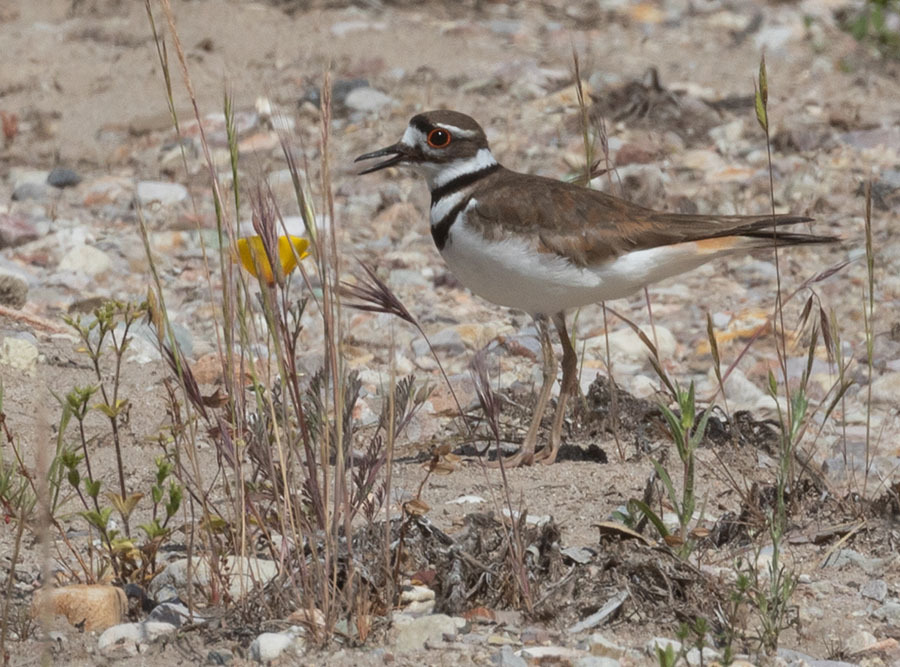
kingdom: Animalia
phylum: Chordata
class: Aves
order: Charadriiformes
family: Charadriidae
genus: Charadrius
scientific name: Charadrius vociferus
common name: Killdeer
